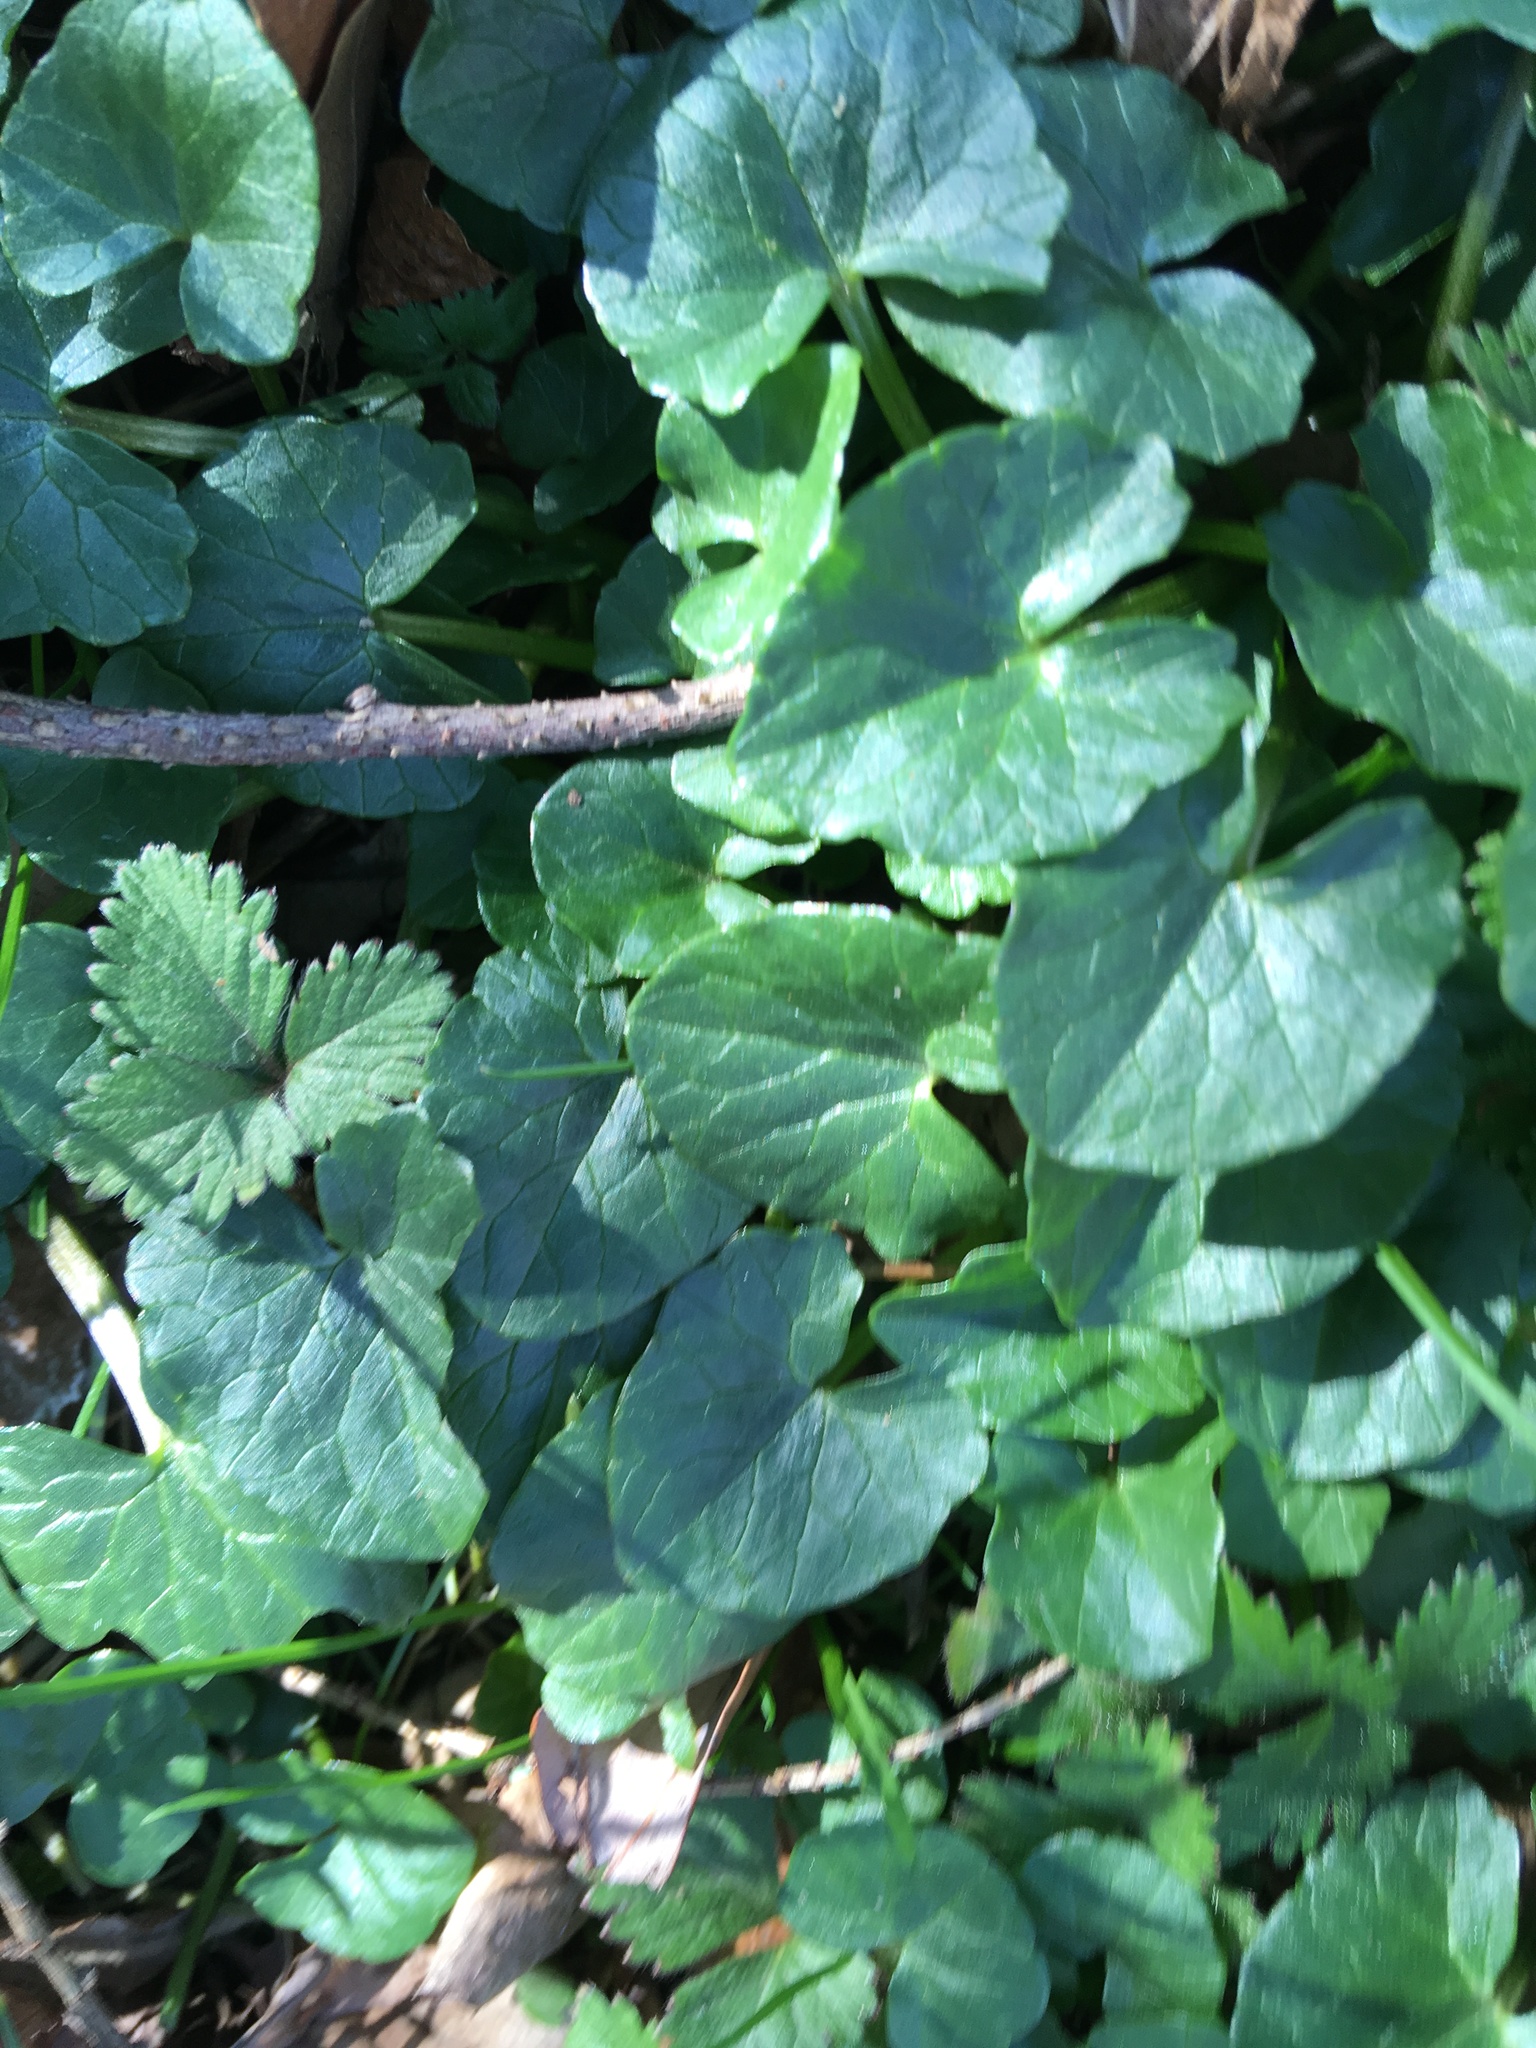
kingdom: Plantae
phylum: Tracheophyta
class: Magnoliopsida
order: Ranunculales
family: Ranunculaceae
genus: Ficaria
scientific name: Ficaria verna
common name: Lesser celandine
